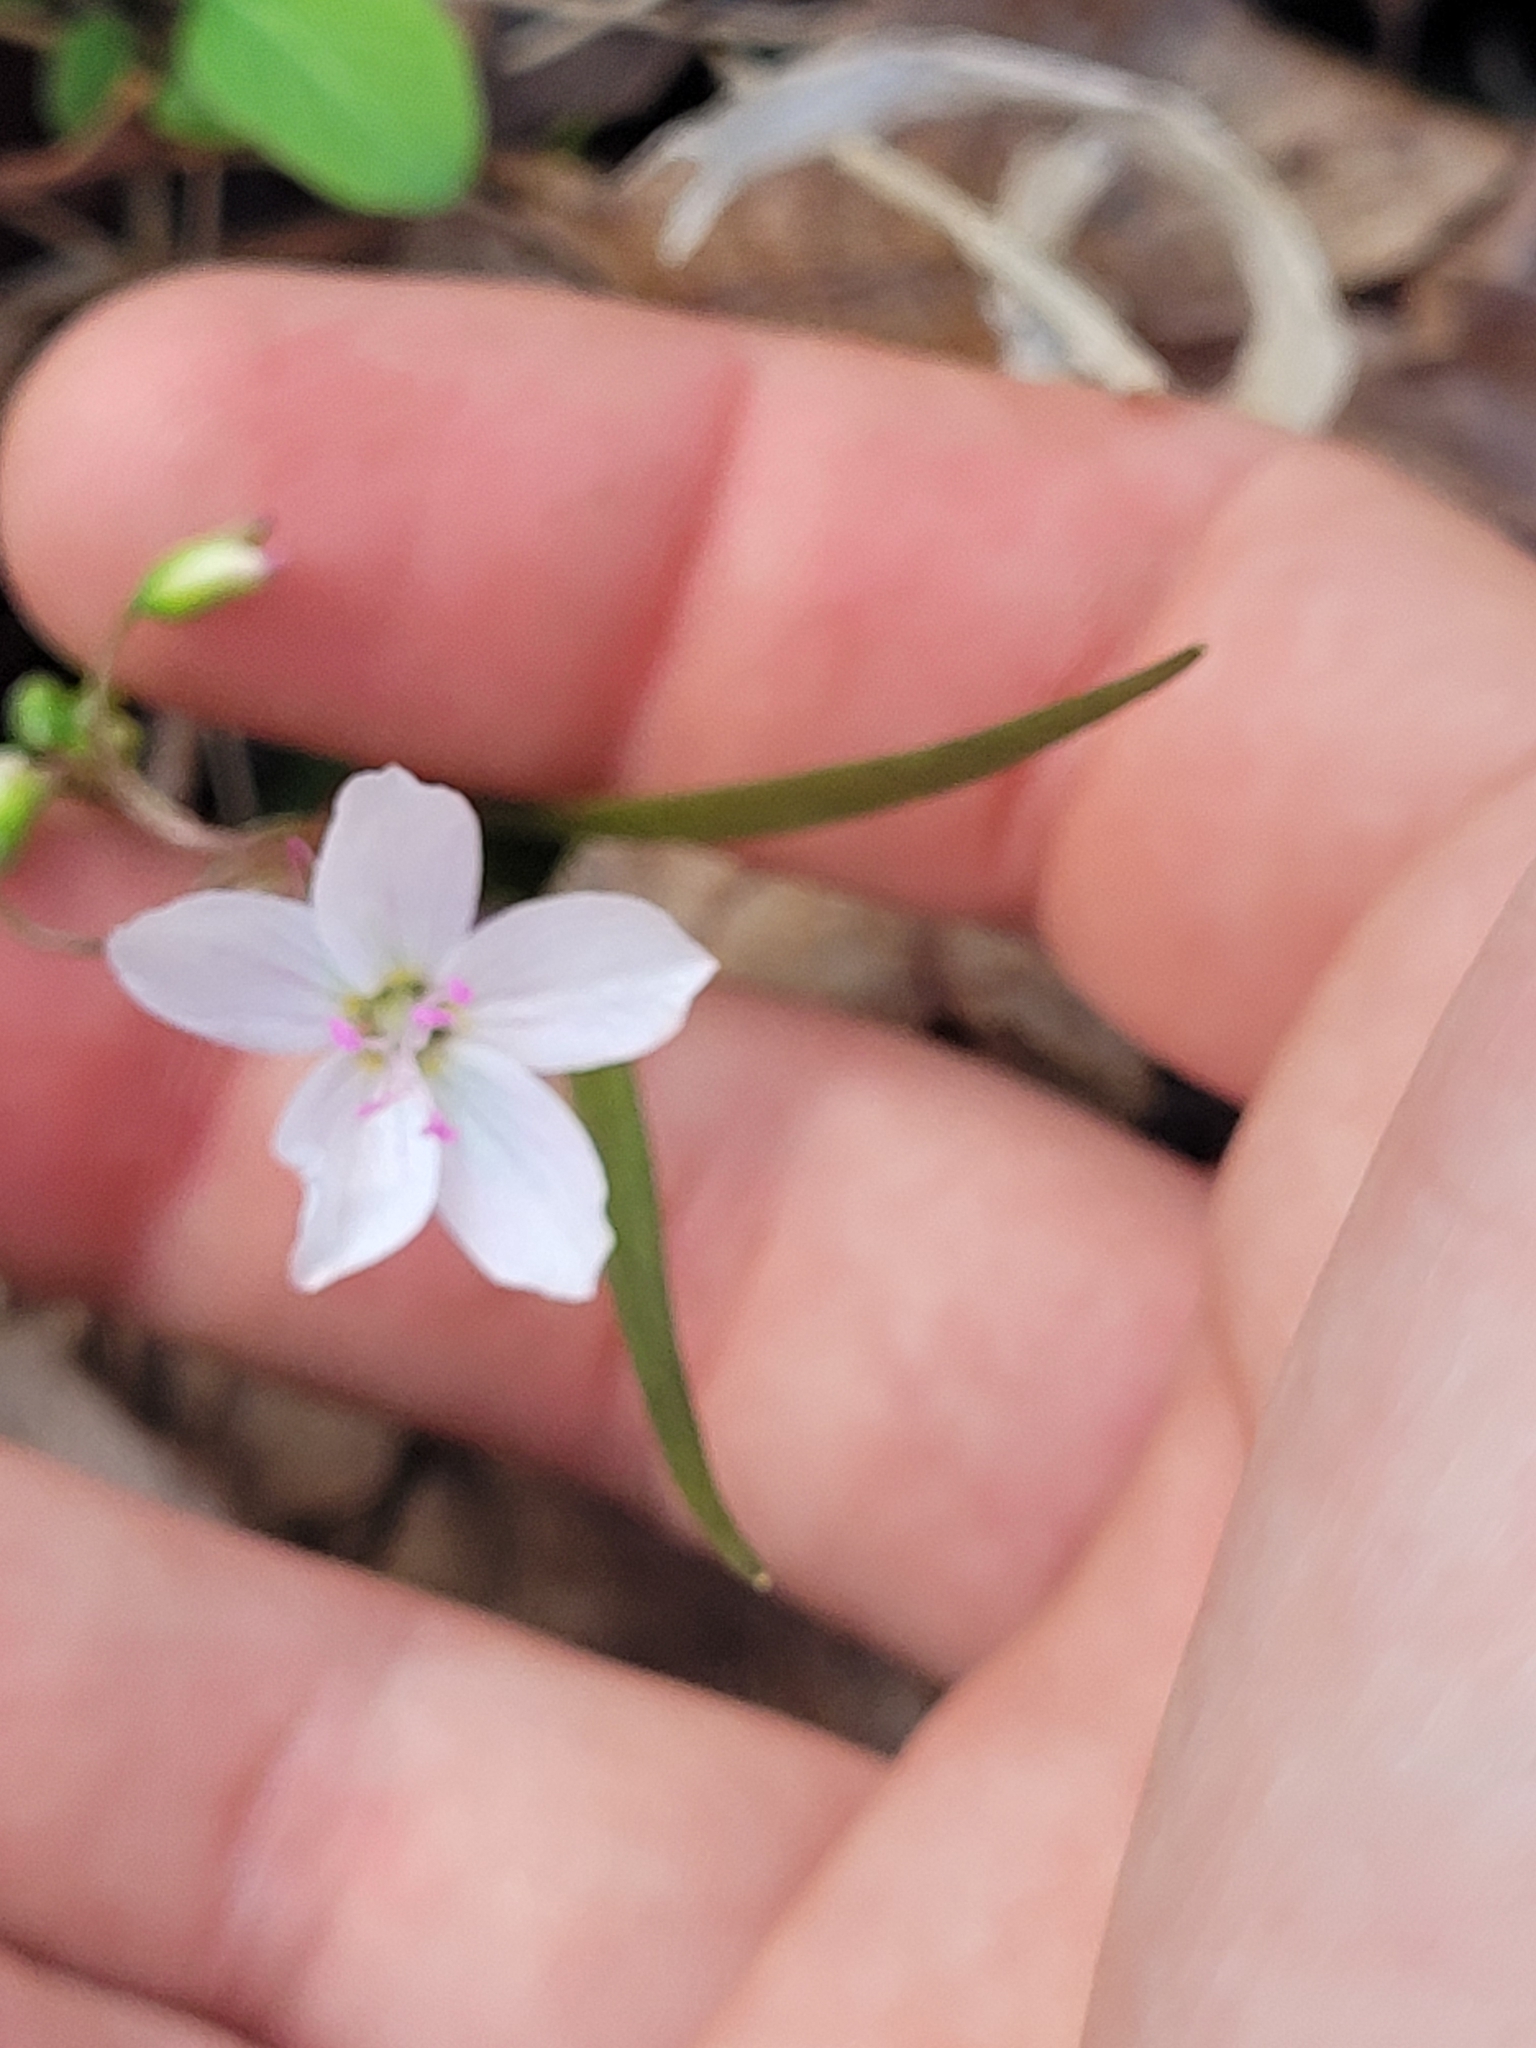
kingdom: Plantae
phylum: Tracheophyta
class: Magnoliopsida
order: Caryophyllales
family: Montiaceae
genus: Claytonia
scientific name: Claytonia virginica
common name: Virginia springbeauty
